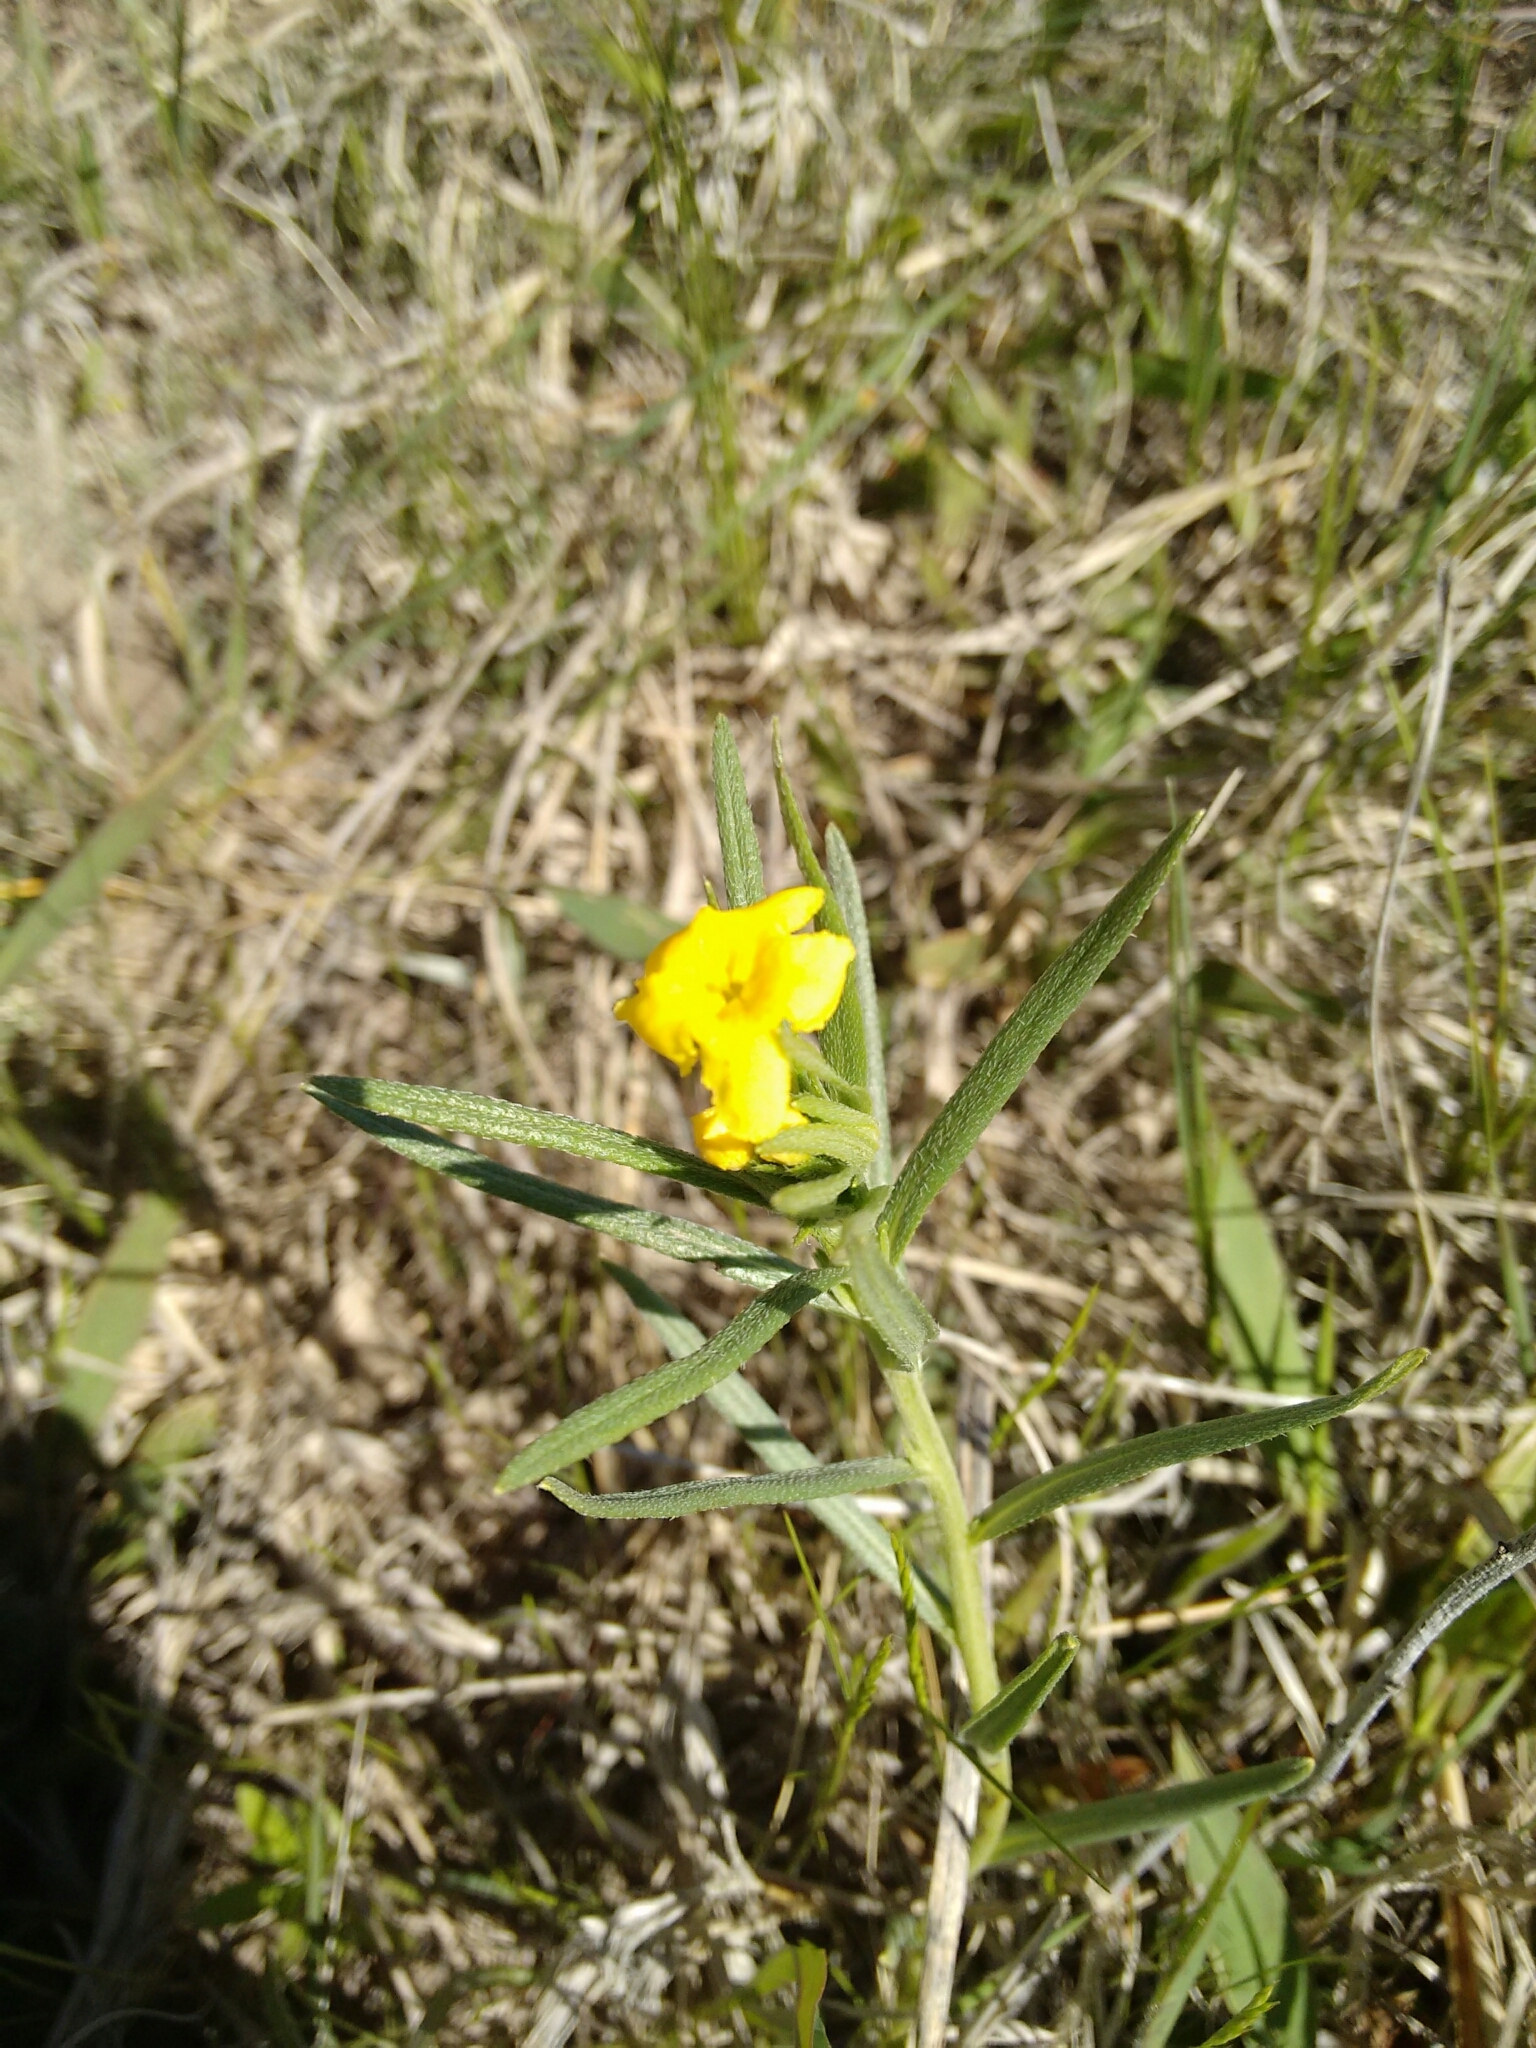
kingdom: Plantae
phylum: Tracheophyta
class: Magnoliopsida
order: Boraginales
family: Boraginaceae
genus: Lithospermum
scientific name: Lithospermum incisum
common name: Fringed gromwell
